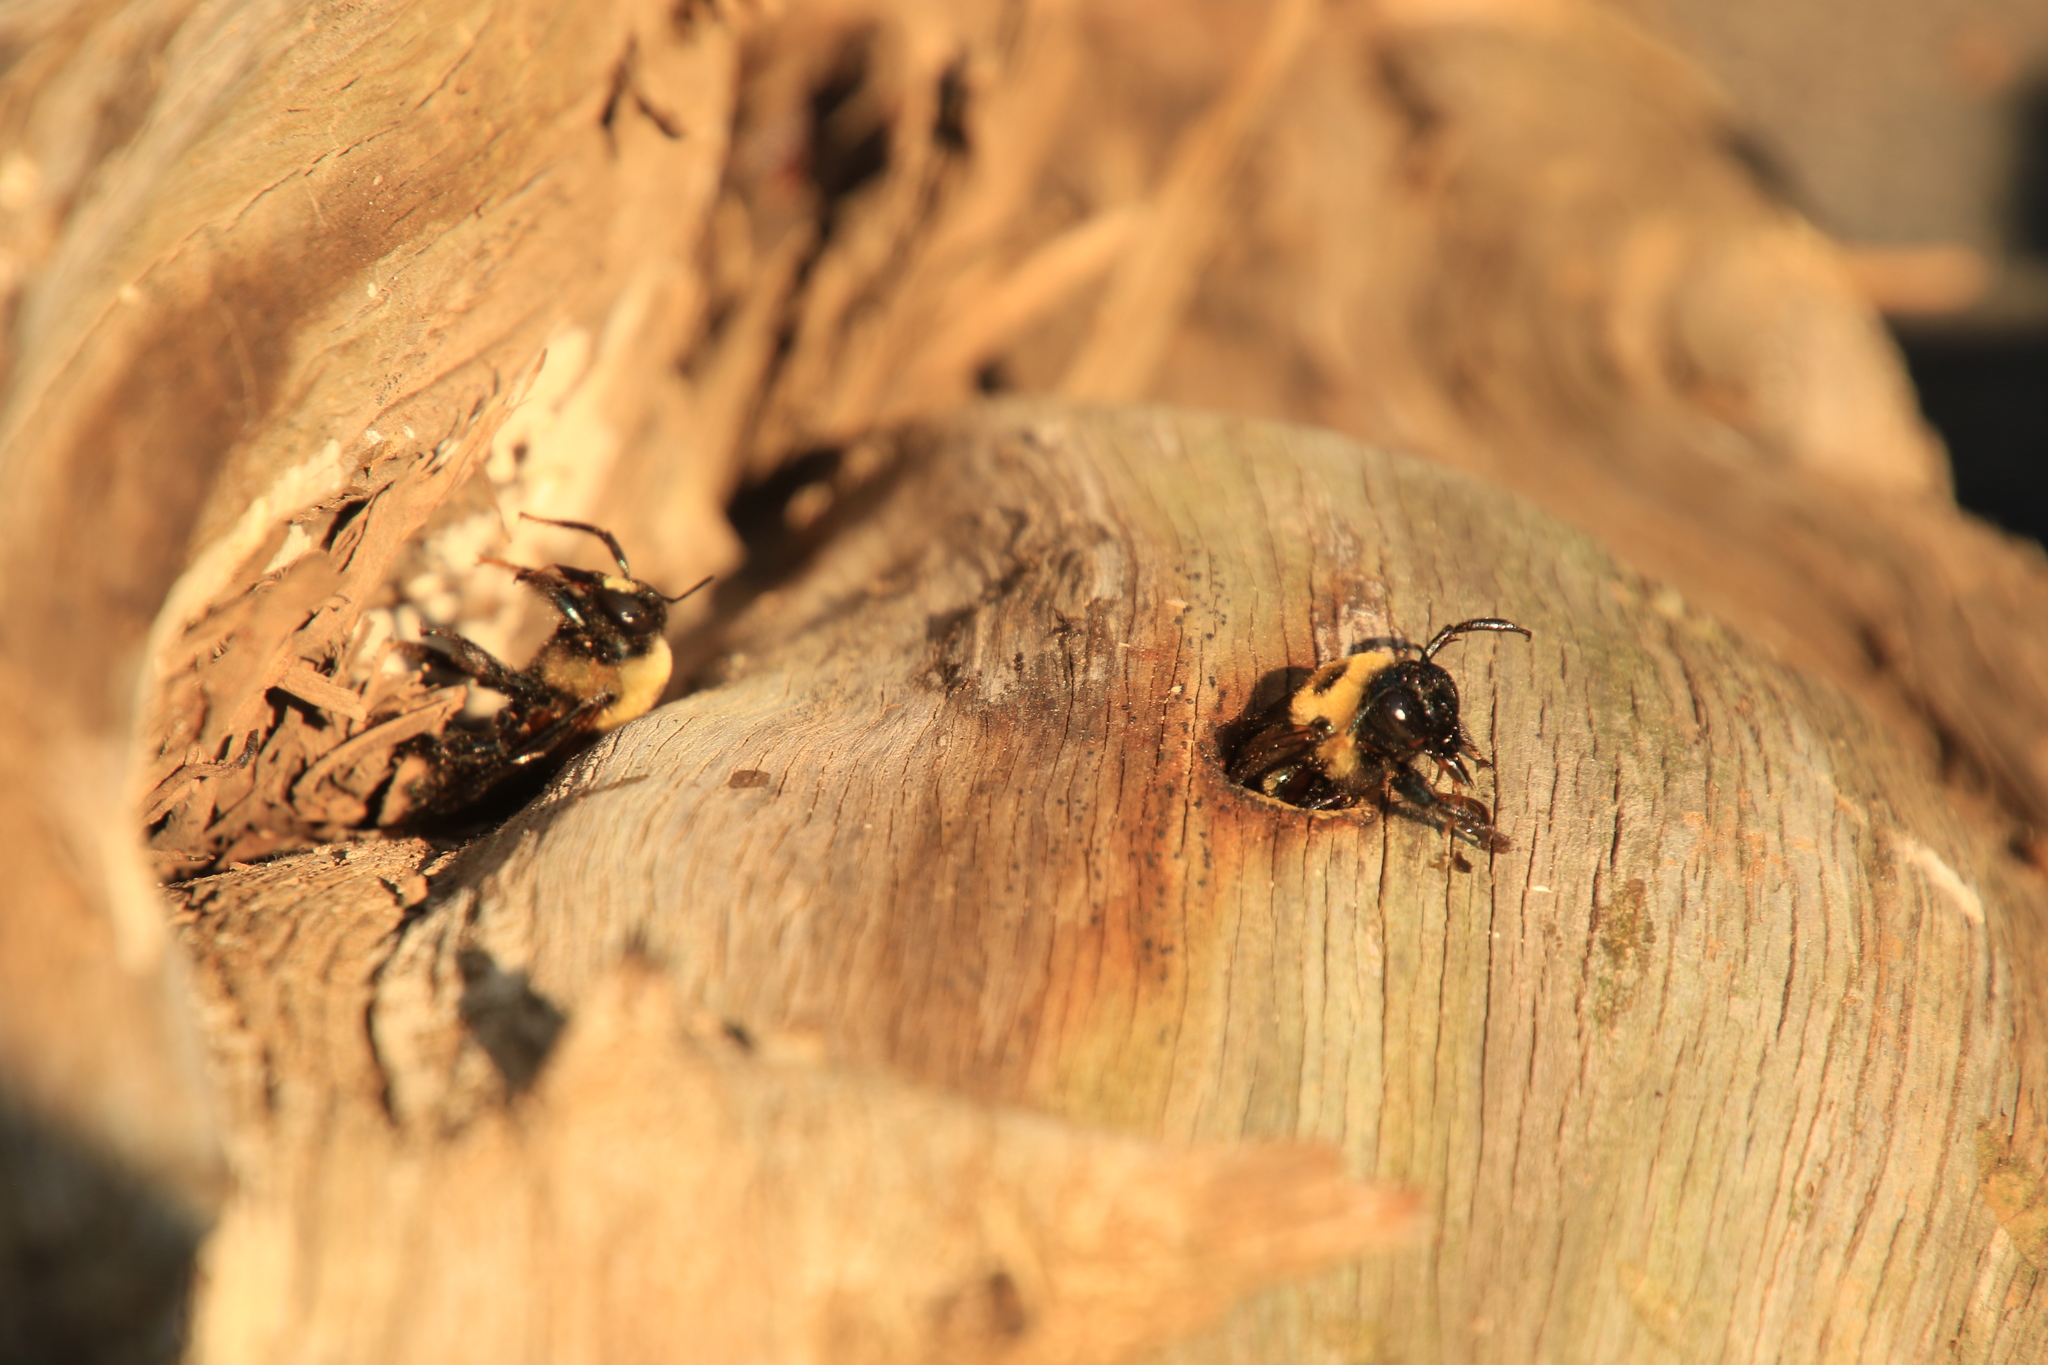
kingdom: Animalia
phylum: Arthropoda
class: Insecta
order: Hymenoptera
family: Apidae
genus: Xylocopa
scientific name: Xylocopa virginica
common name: Carpenter bee
